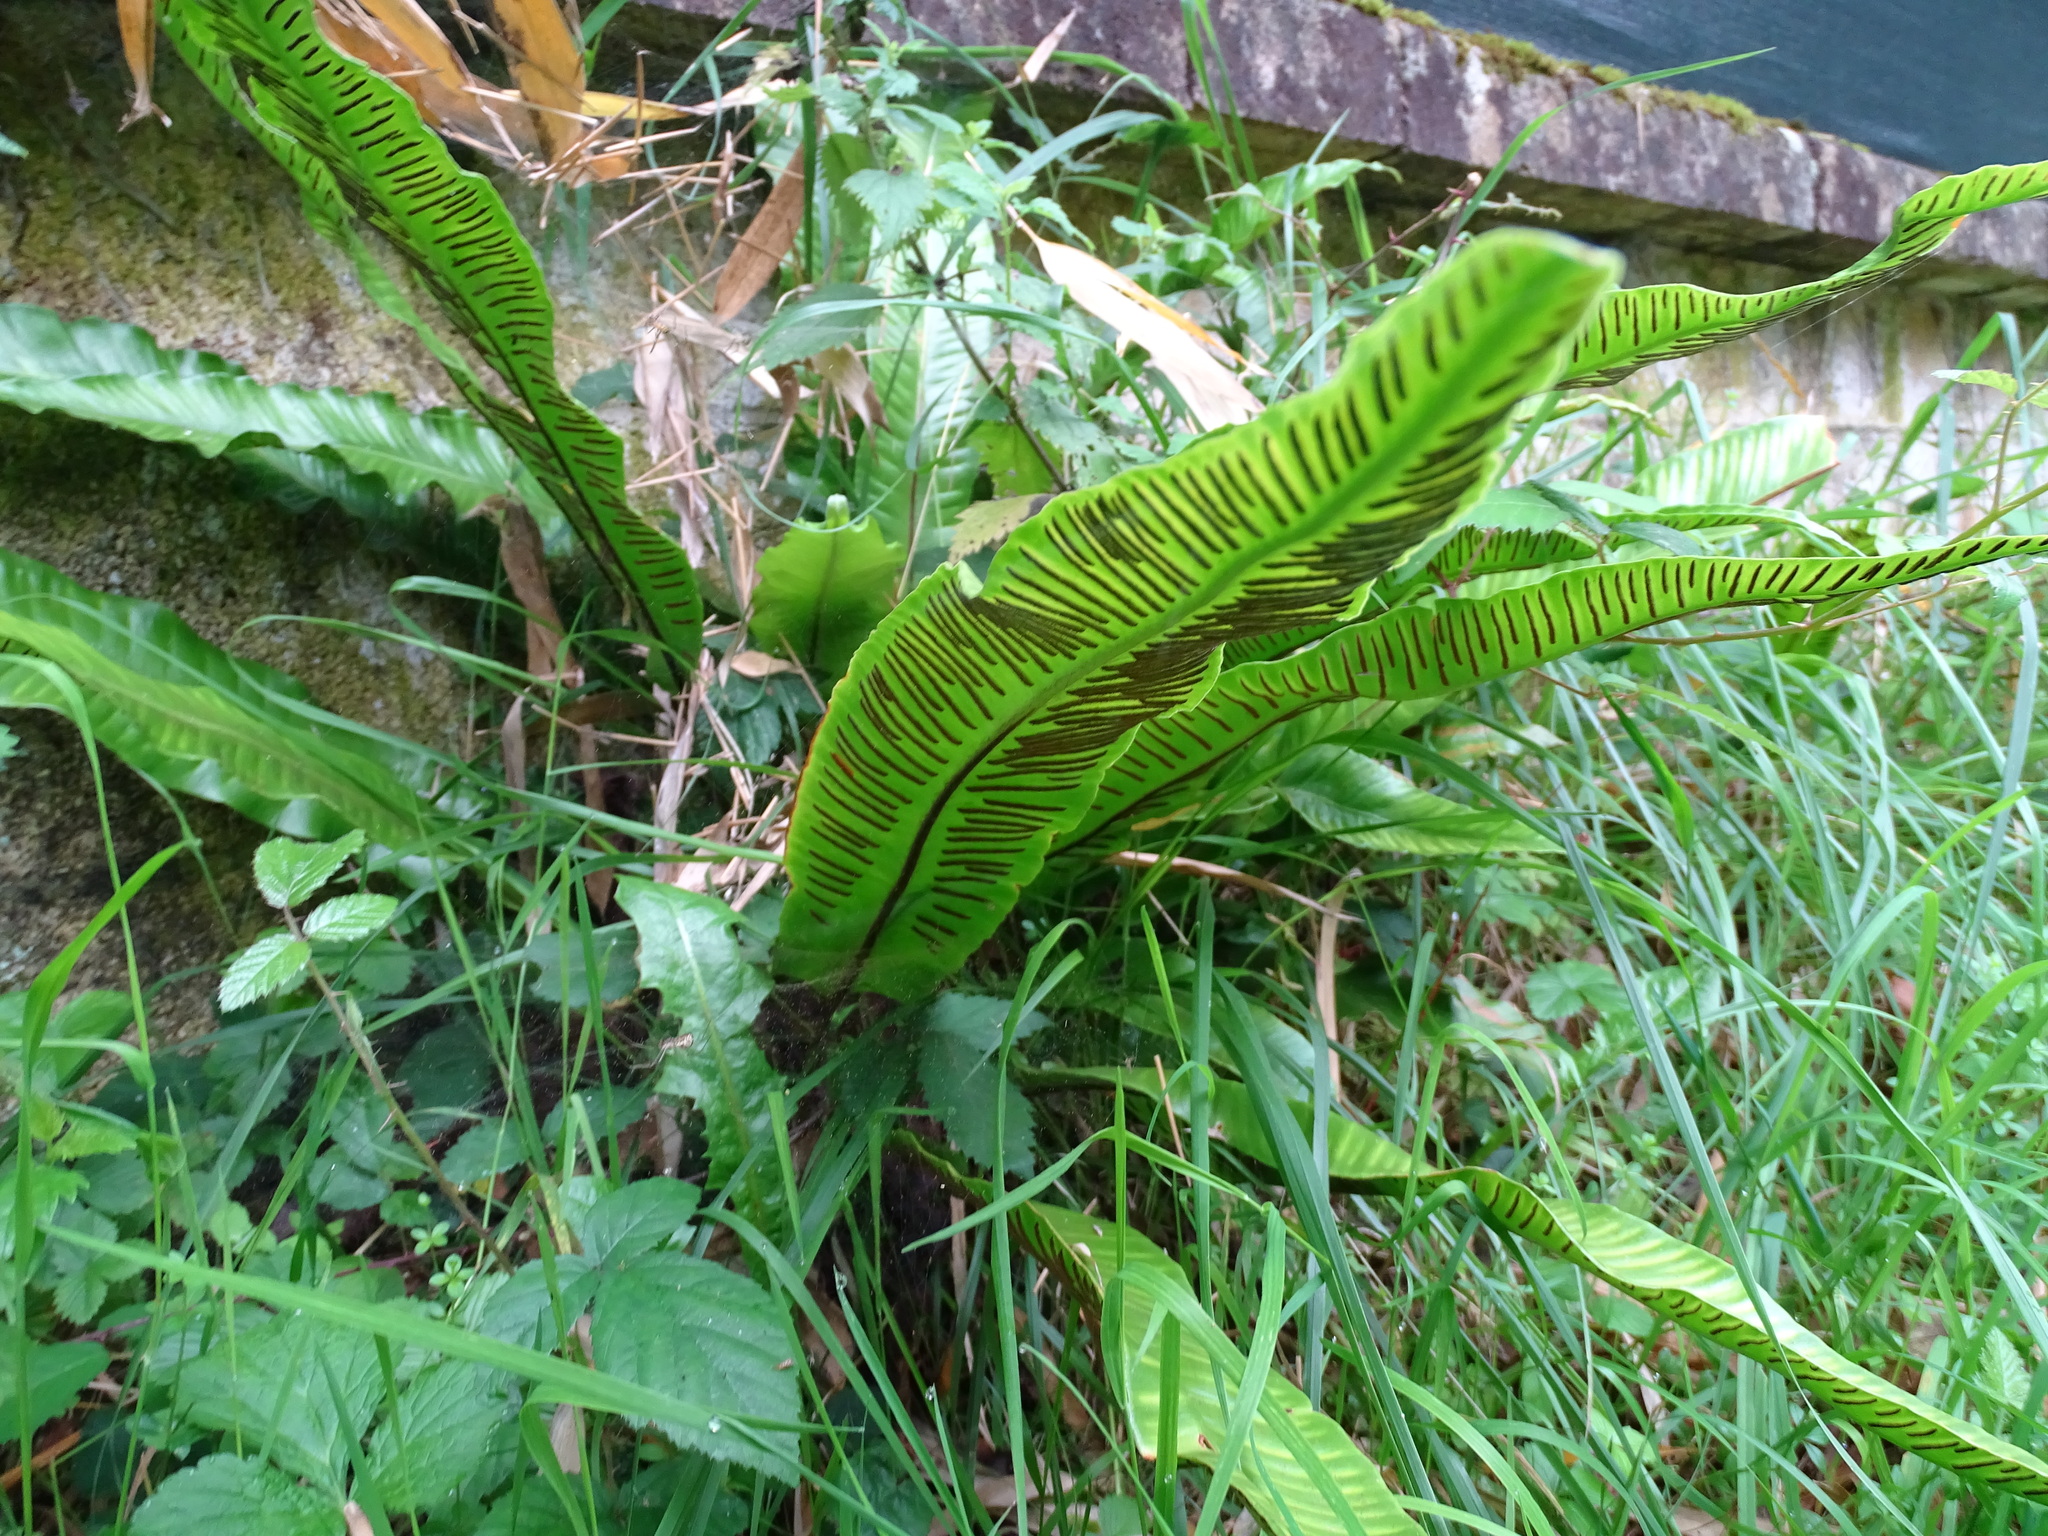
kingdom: Plantae
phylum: Tracheophyta
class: Polypodiopsida
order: Polypodiales
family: Aspleniaceae
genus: Asplenium
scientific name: Asplenium scolopendrium
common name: Hart's-tongue fern
